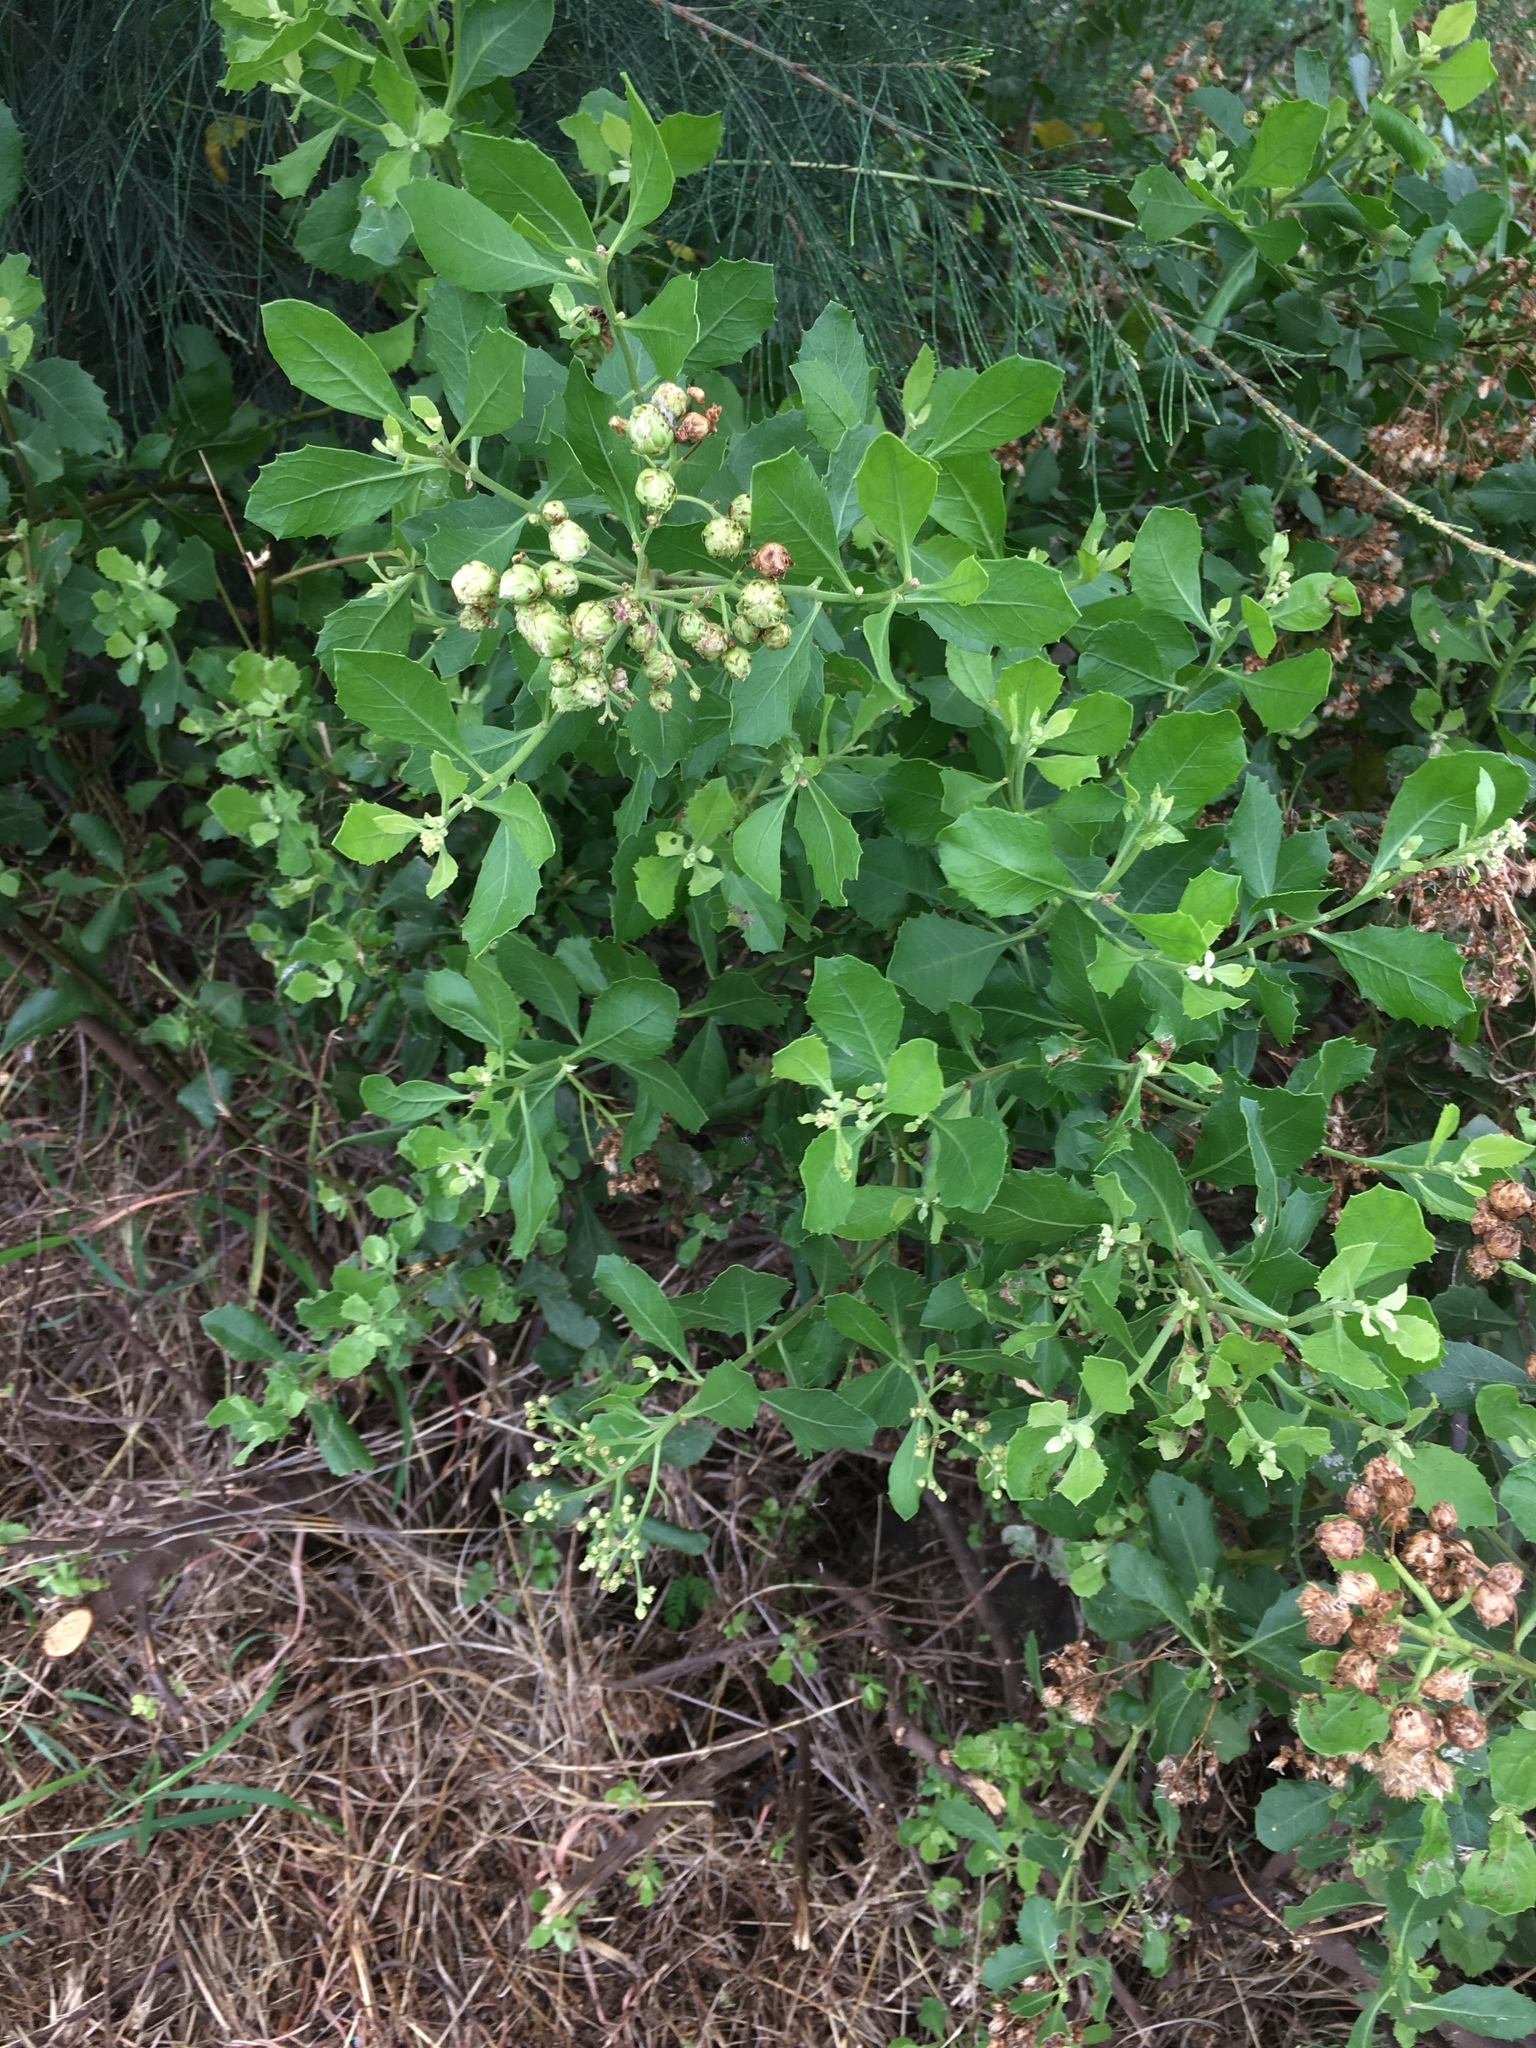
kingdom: Plantae
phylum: Tracheophyta
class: Magnoliopsida
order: Asterales
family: Asteraceae
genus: Pluchea
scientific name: Pluchea indica
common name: Indian fleabane
